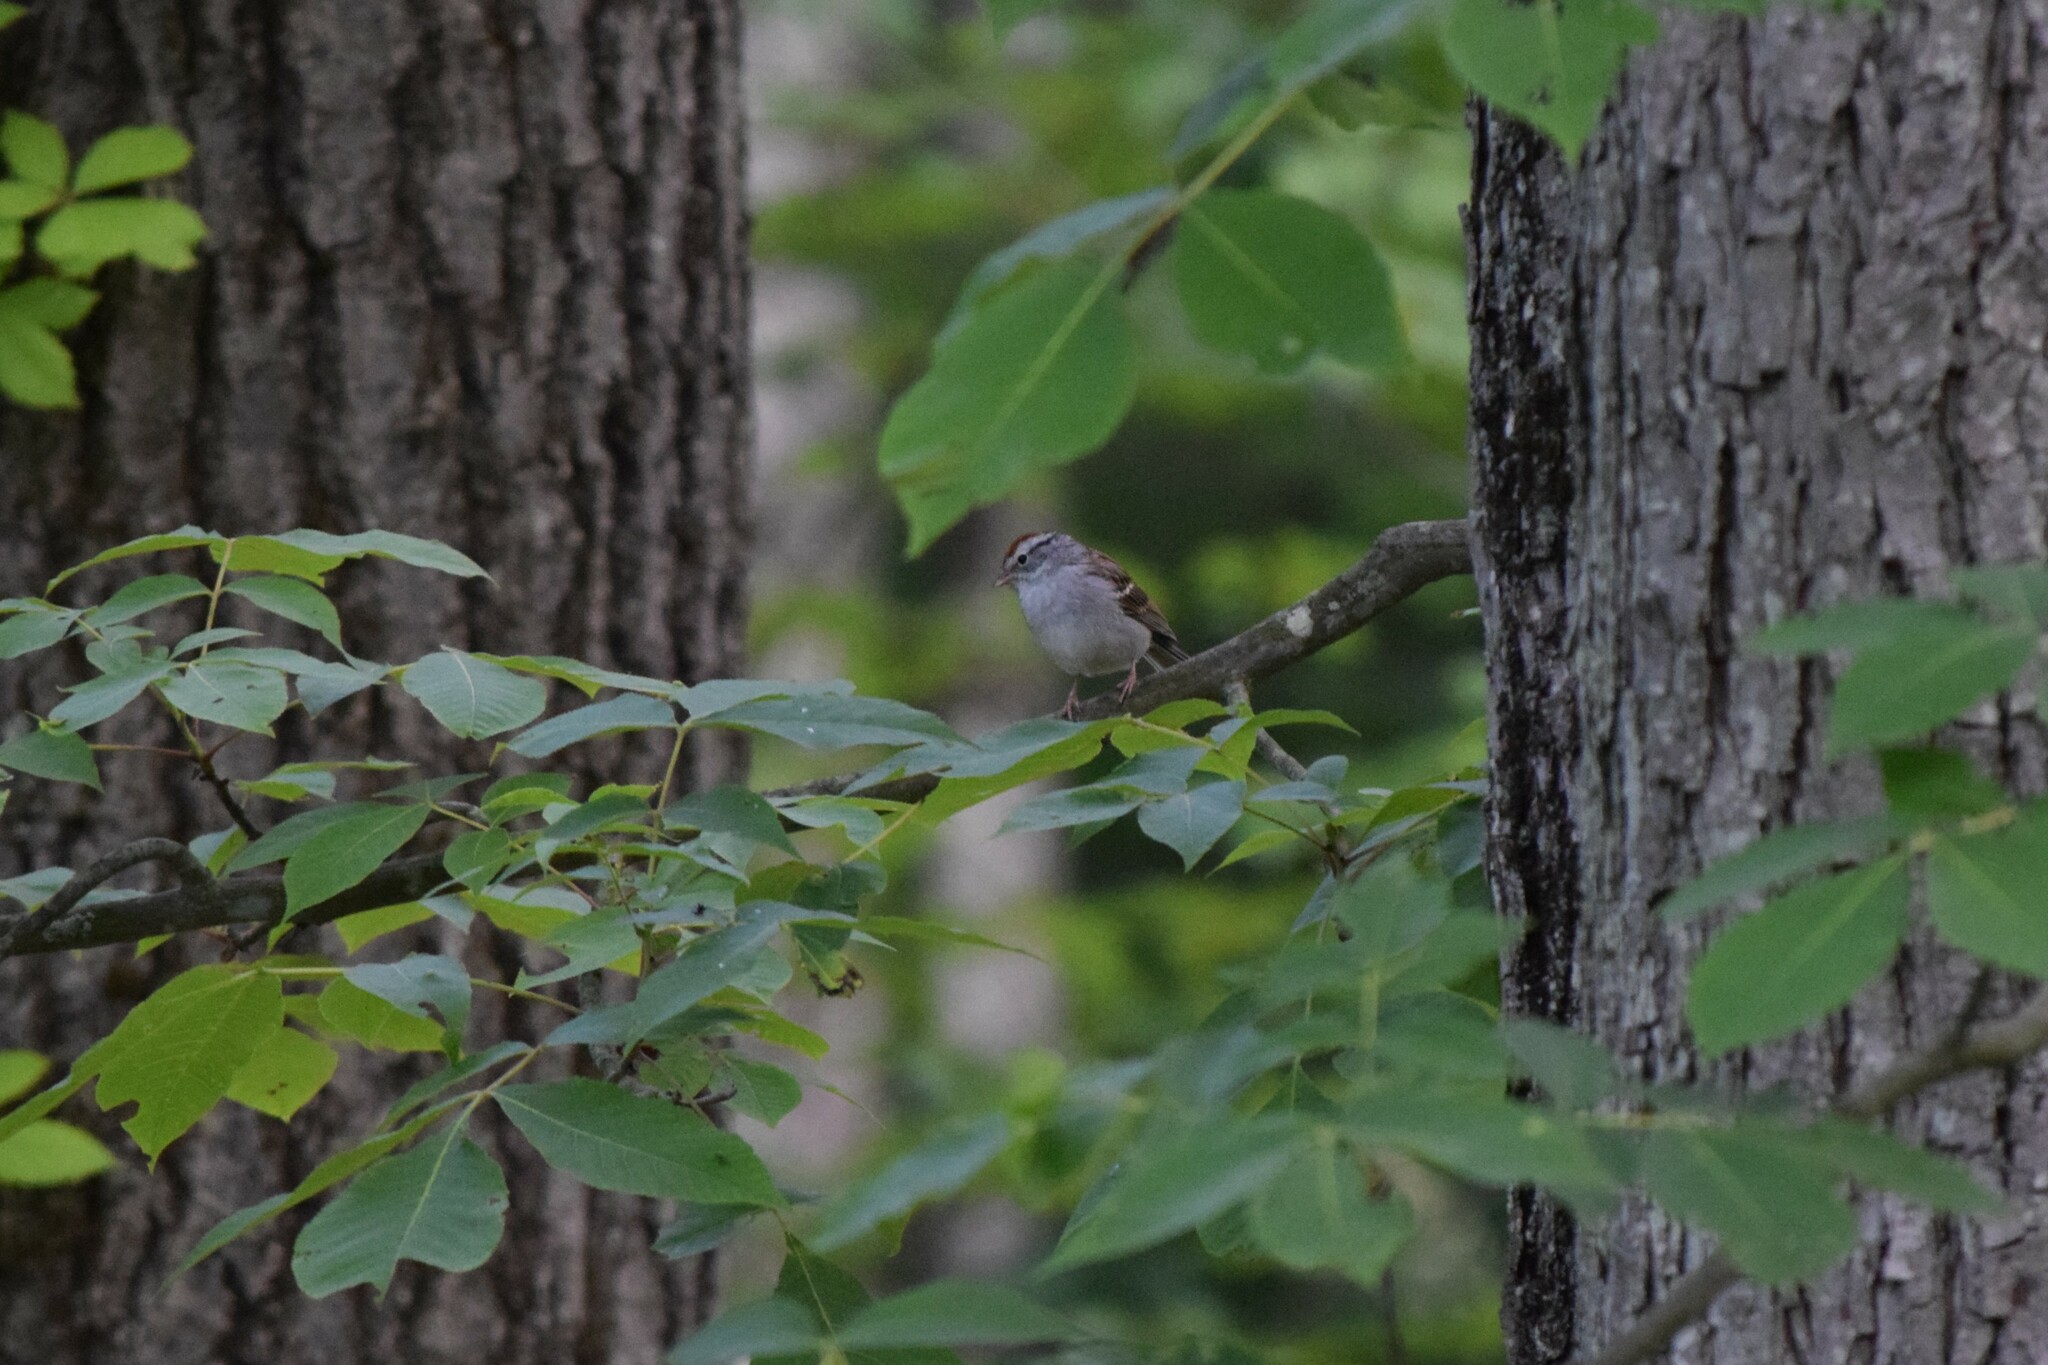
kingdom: Animalia
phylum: Chordata
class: Aves
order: Passeriformes
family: Passerellidae
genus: Spizella
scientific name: Spizella passerina
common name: Chipping sparrow
